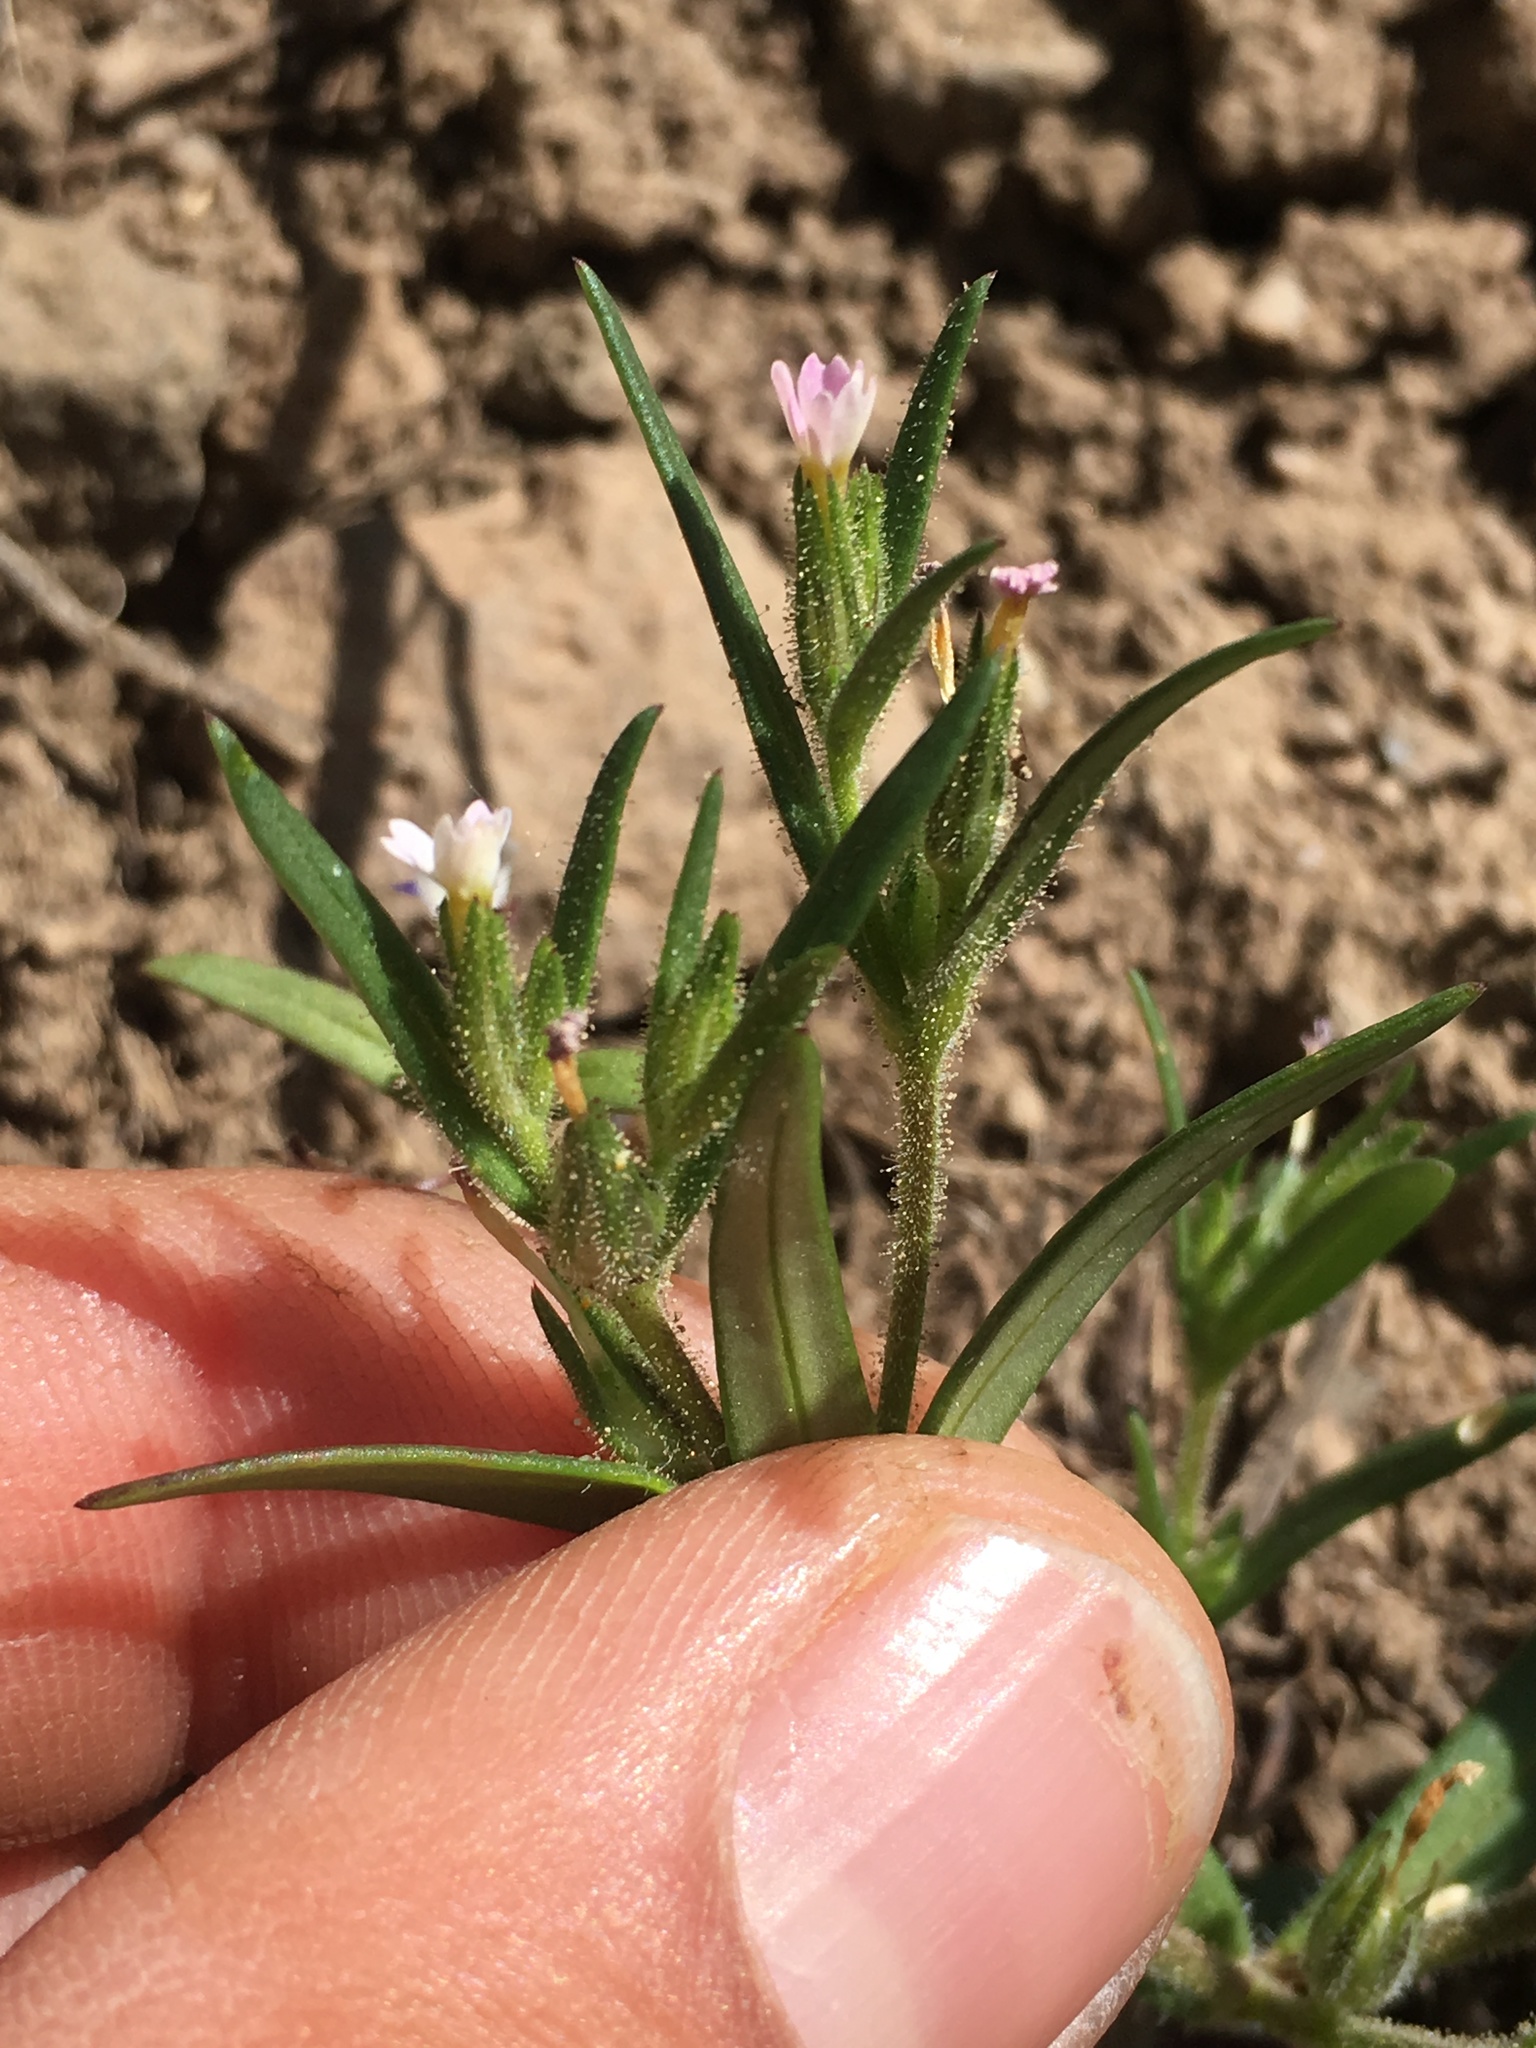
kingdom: Plantae
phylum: Tracheophyta
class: Magnoliopsida
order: Ericales
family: Polemoniaceae
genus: Phlox
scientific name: Phlox gracilis
